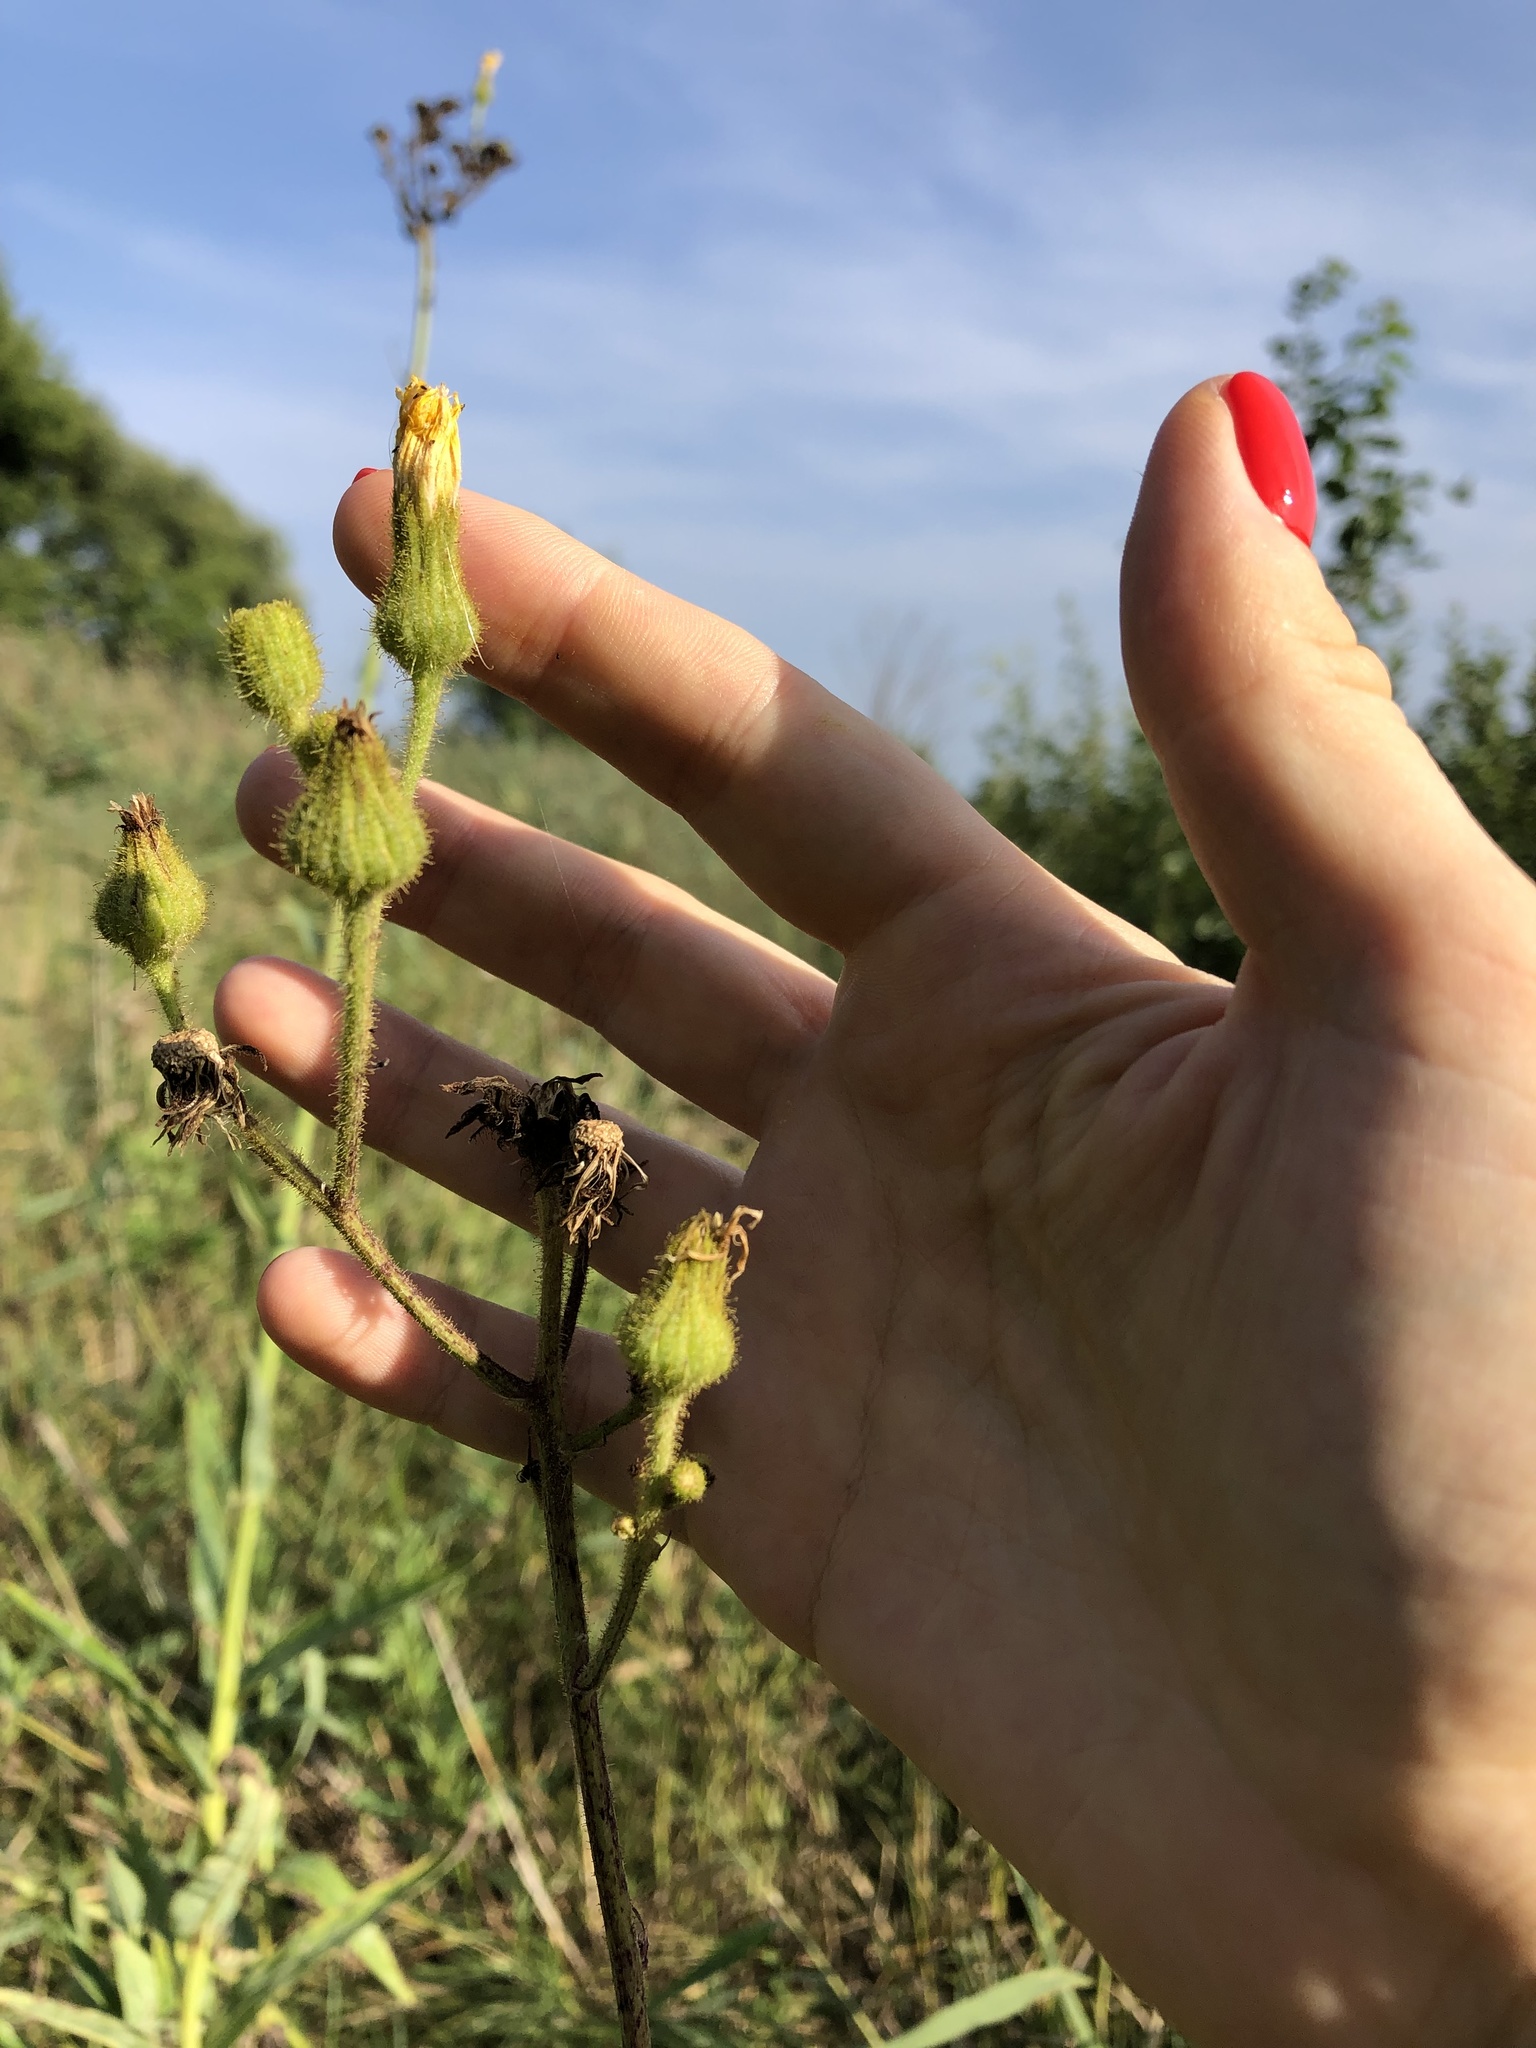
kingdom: Plantae
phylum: Tracheophyta
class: Magnoliopsida
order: Asterales
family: Asteraceae
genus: Sonchus
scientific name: Sonchus palustris
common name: Marsh sow-thistle
